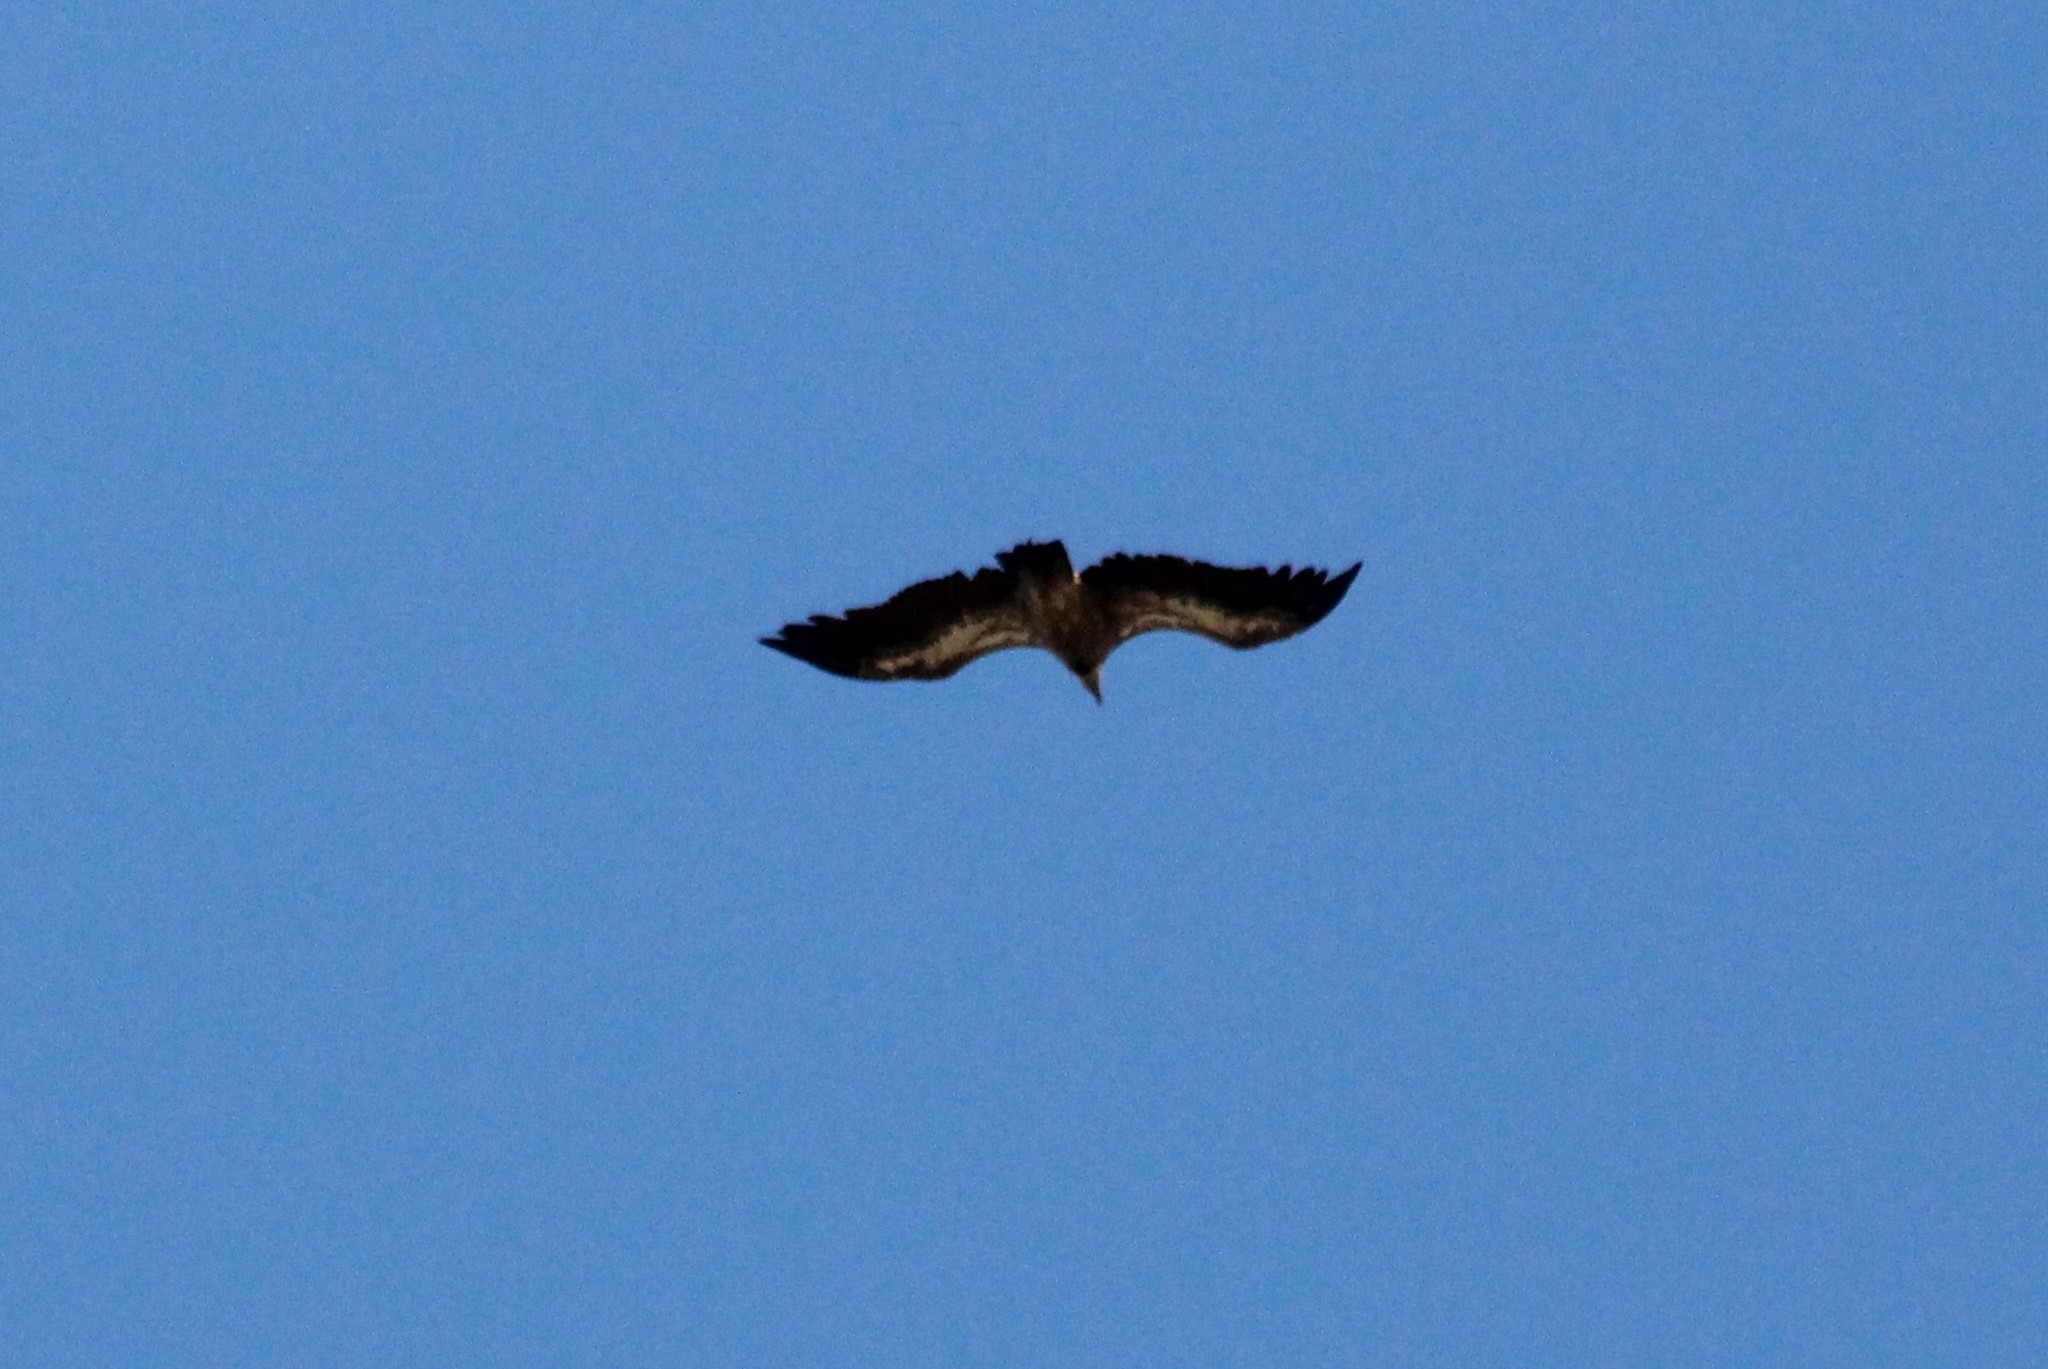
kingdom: Animalia
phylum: Chordata
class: Aves
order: Accipitriformes
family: Accipitridae
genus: Gyps
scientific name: Gyps fulvus
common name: Griffon vulture
